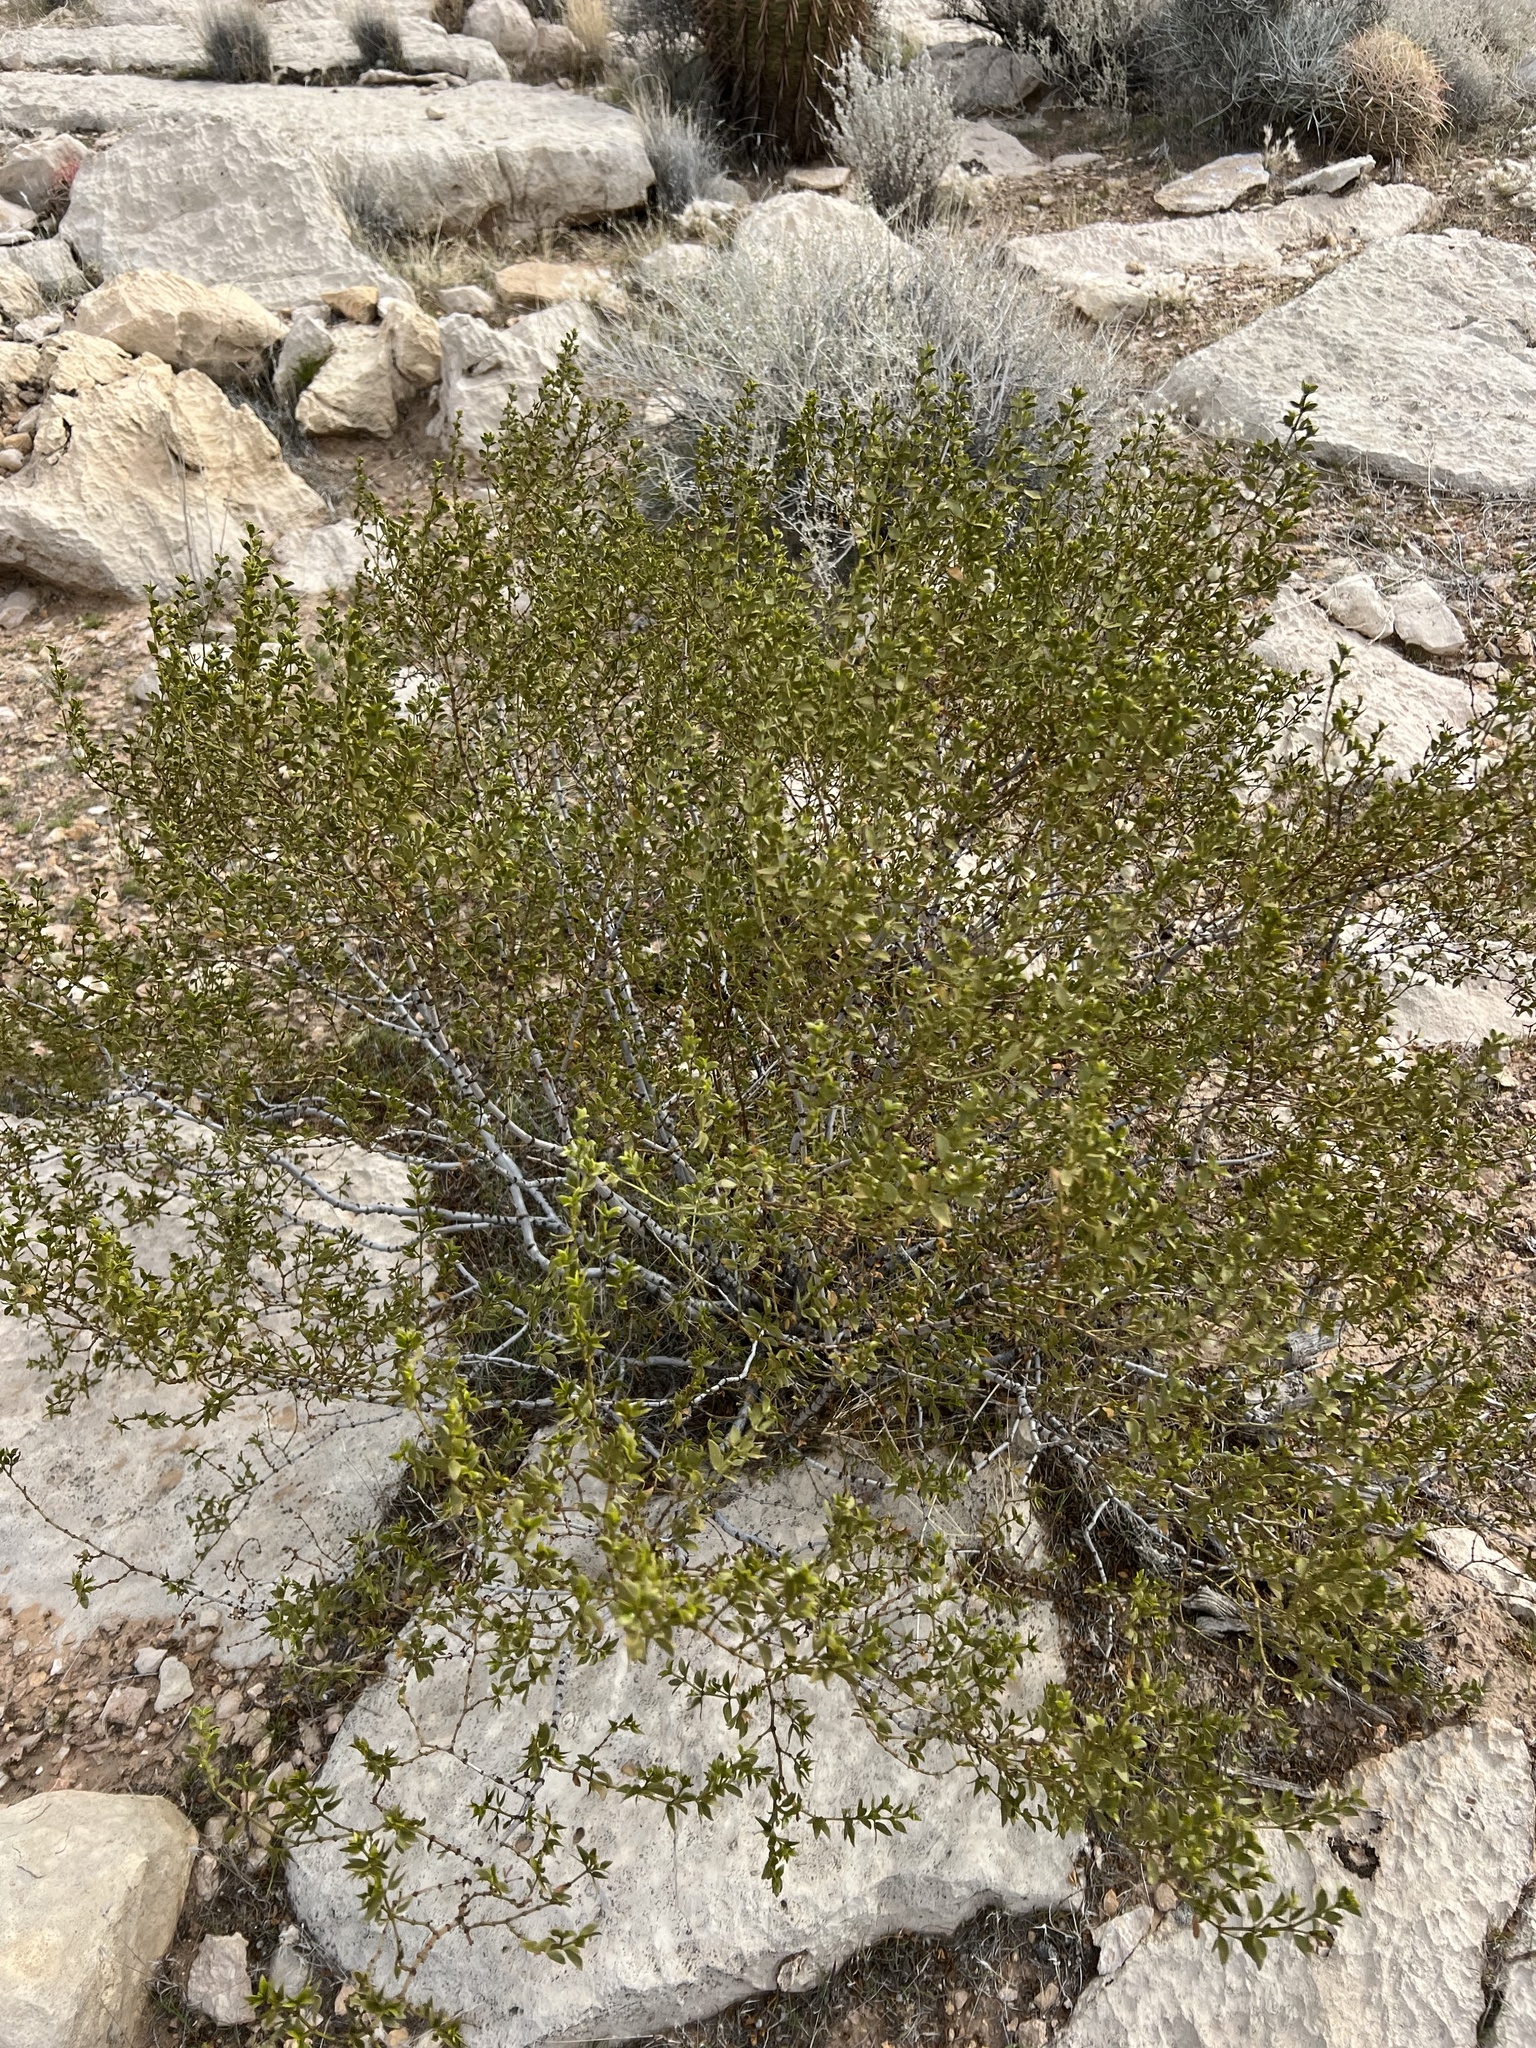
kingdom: Plantae
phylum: Tracheophyta
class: Magnoliopsida
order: Zygophyllales
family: Zygophyllaceae
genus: Larrea
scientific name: Larrea tridentata
